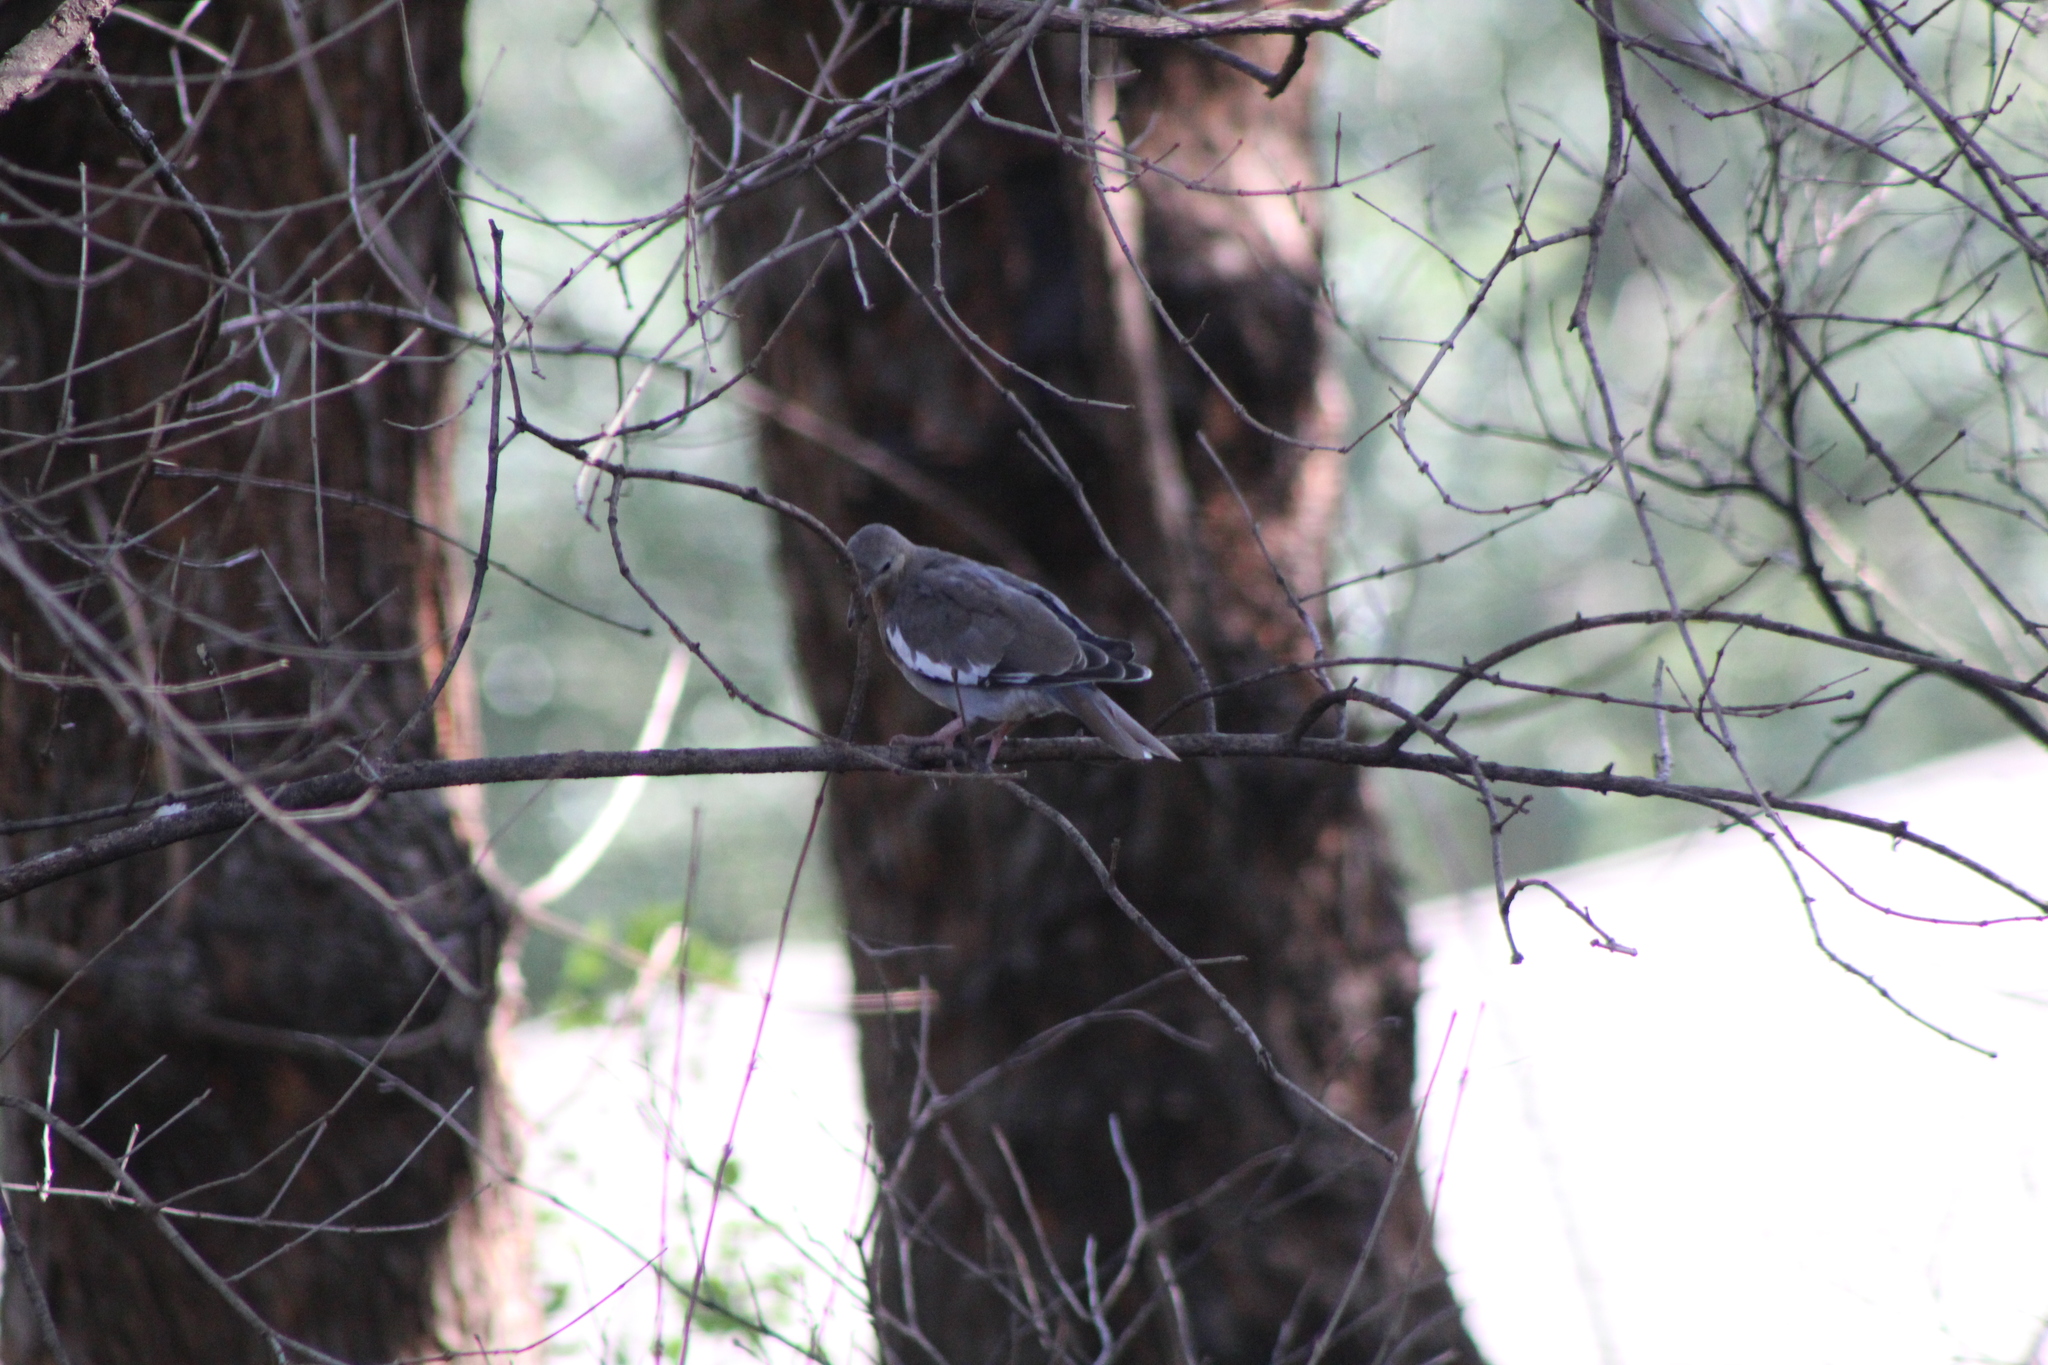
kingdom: Animalia
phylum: Chordata
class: Aves
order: Columbiformes
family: Columbidae
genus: Zenaida
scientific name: Zenaida asiatica
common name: White-winged dove
